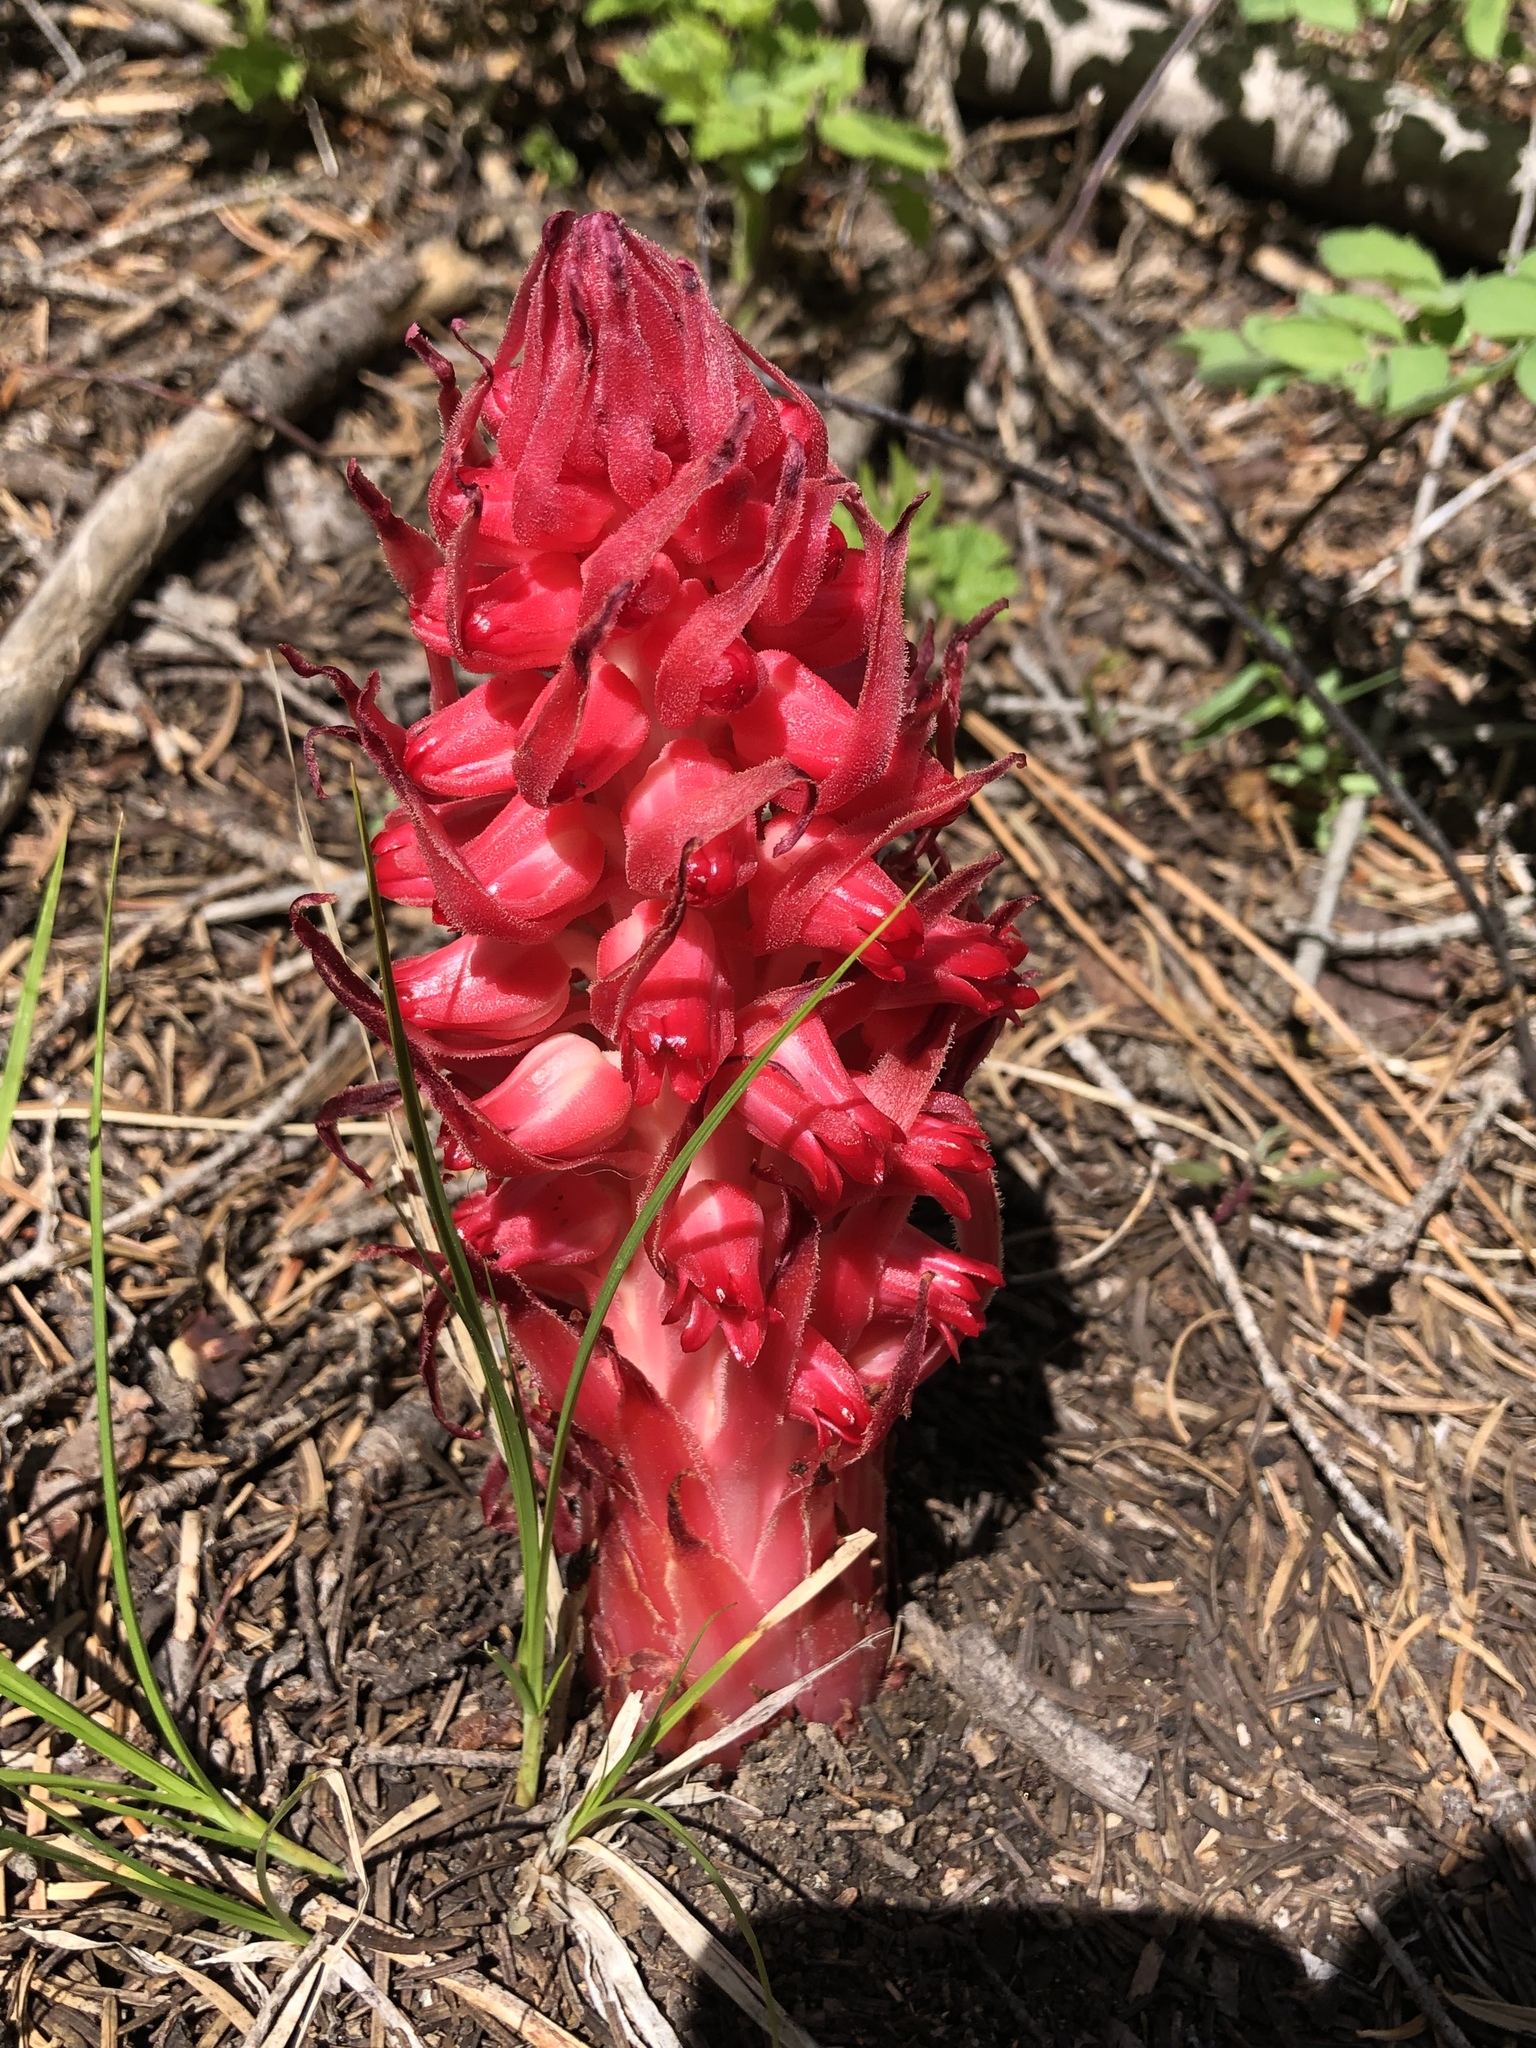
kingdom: Plantae
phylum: Tracheophyta
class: Magnoliopsida
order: Ericales
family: Ericaceae
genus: Sarcodes
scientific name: Sarcodes sanguinea
